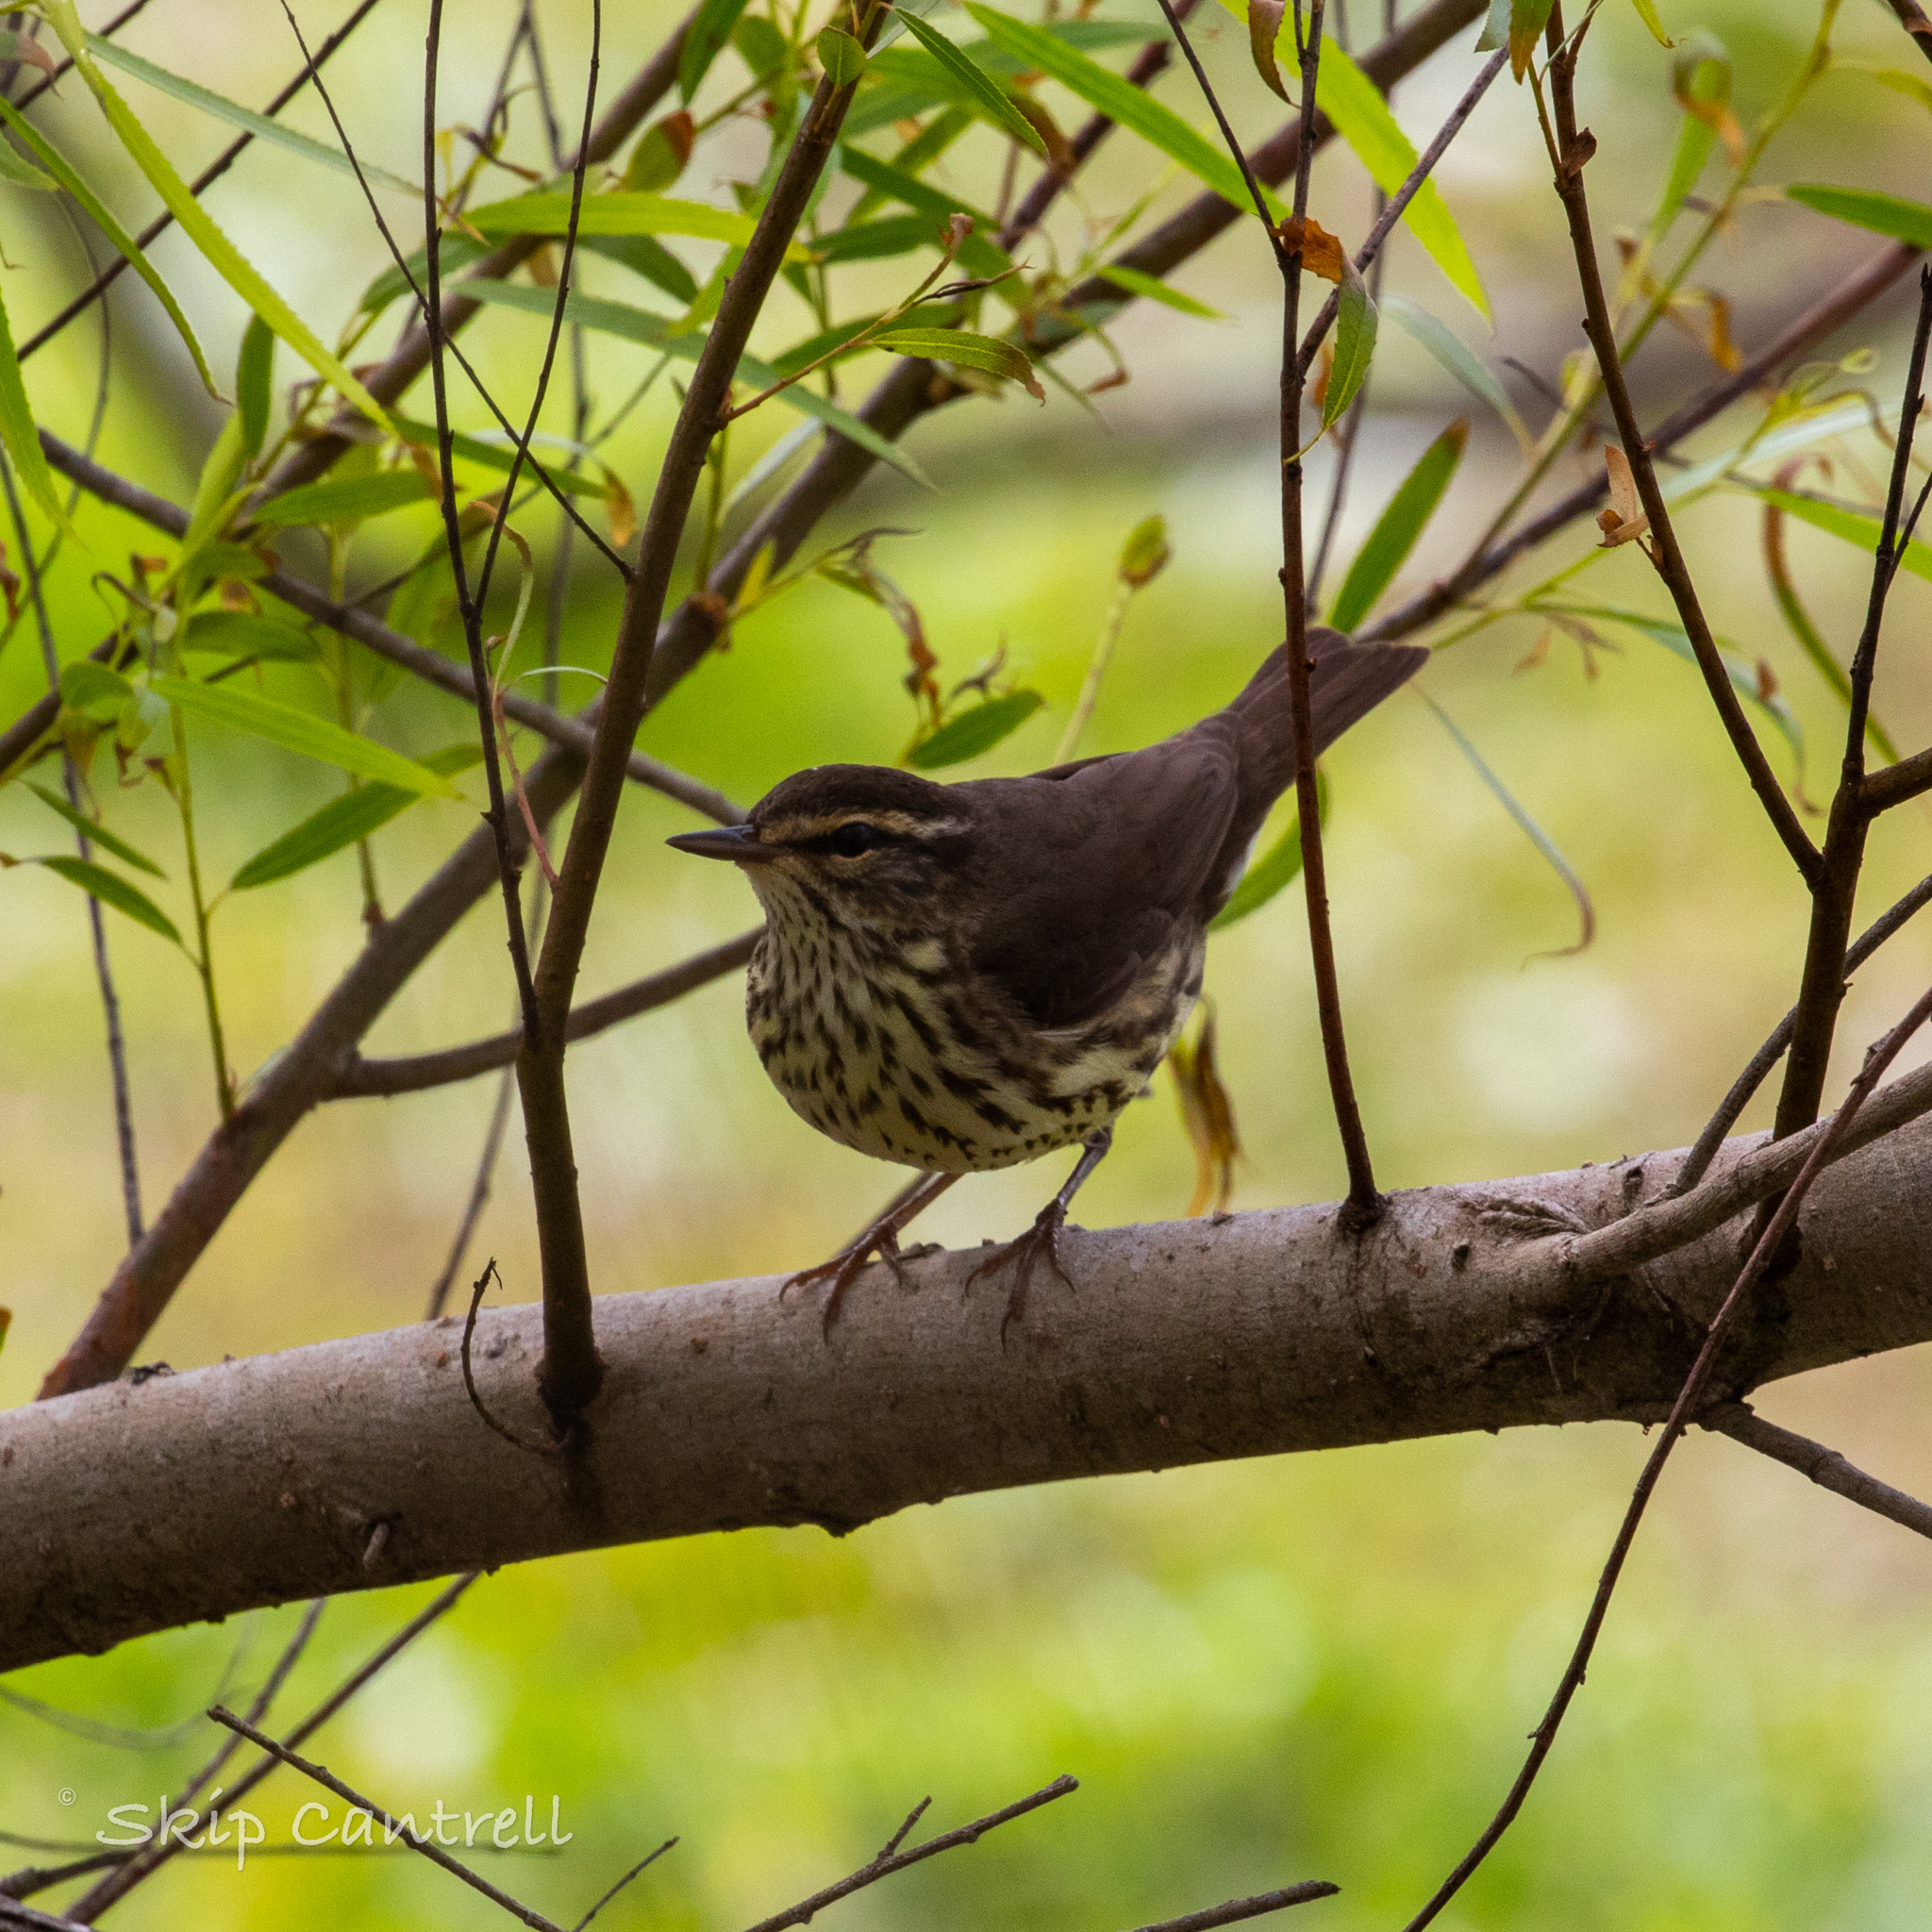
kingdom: Animalia
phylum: Chordata
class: Aves
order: Passeriformes
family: Parulidae
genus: Parkesia
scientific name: Parkesia noveboracensis
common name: Northern waterthrush
